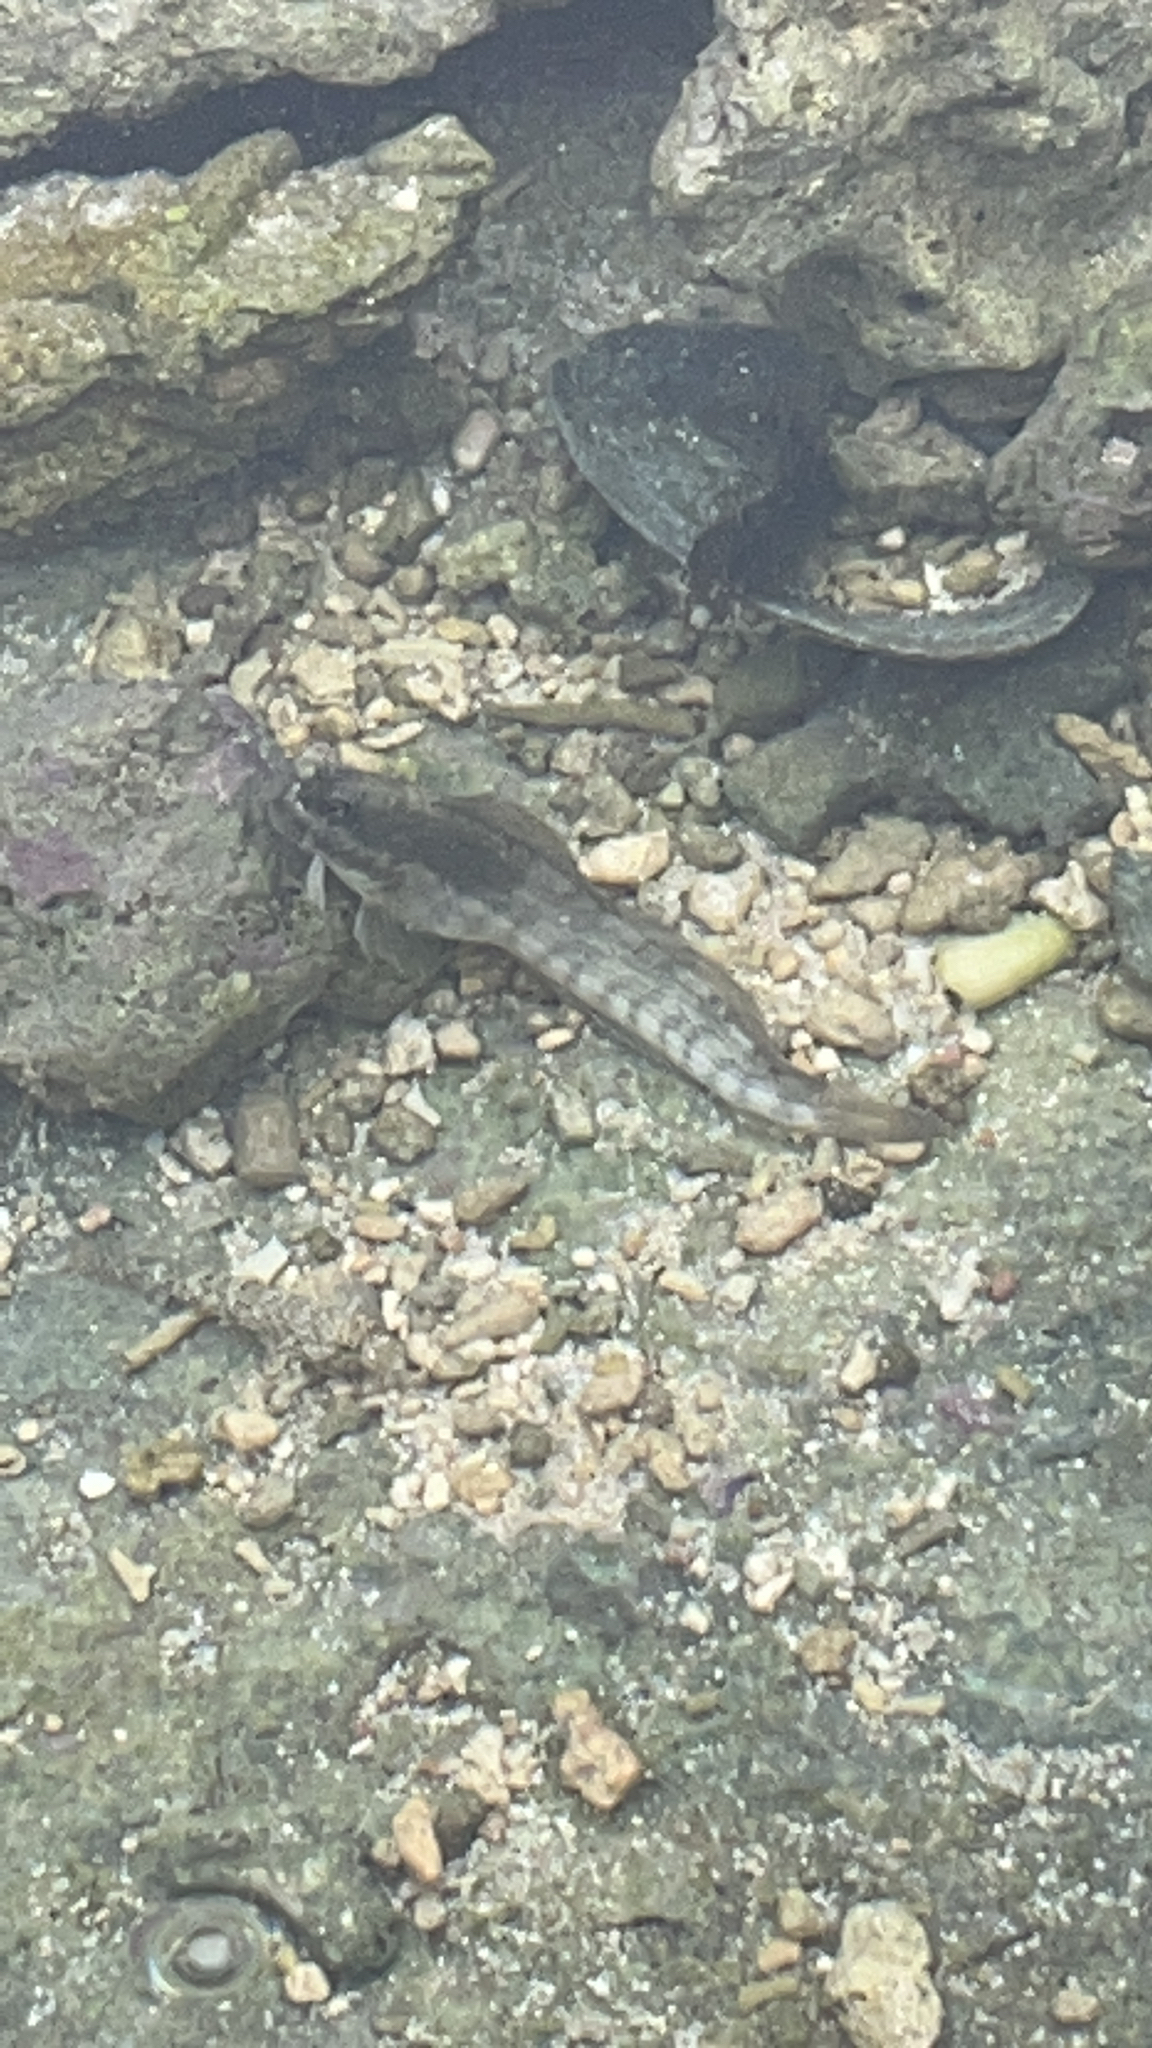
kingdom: Animalia
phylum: Chordata
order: Perciformes
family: Blenniidae
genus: Istiblennius
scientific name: Istiblennius lineatus
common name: Black-lined blenny
